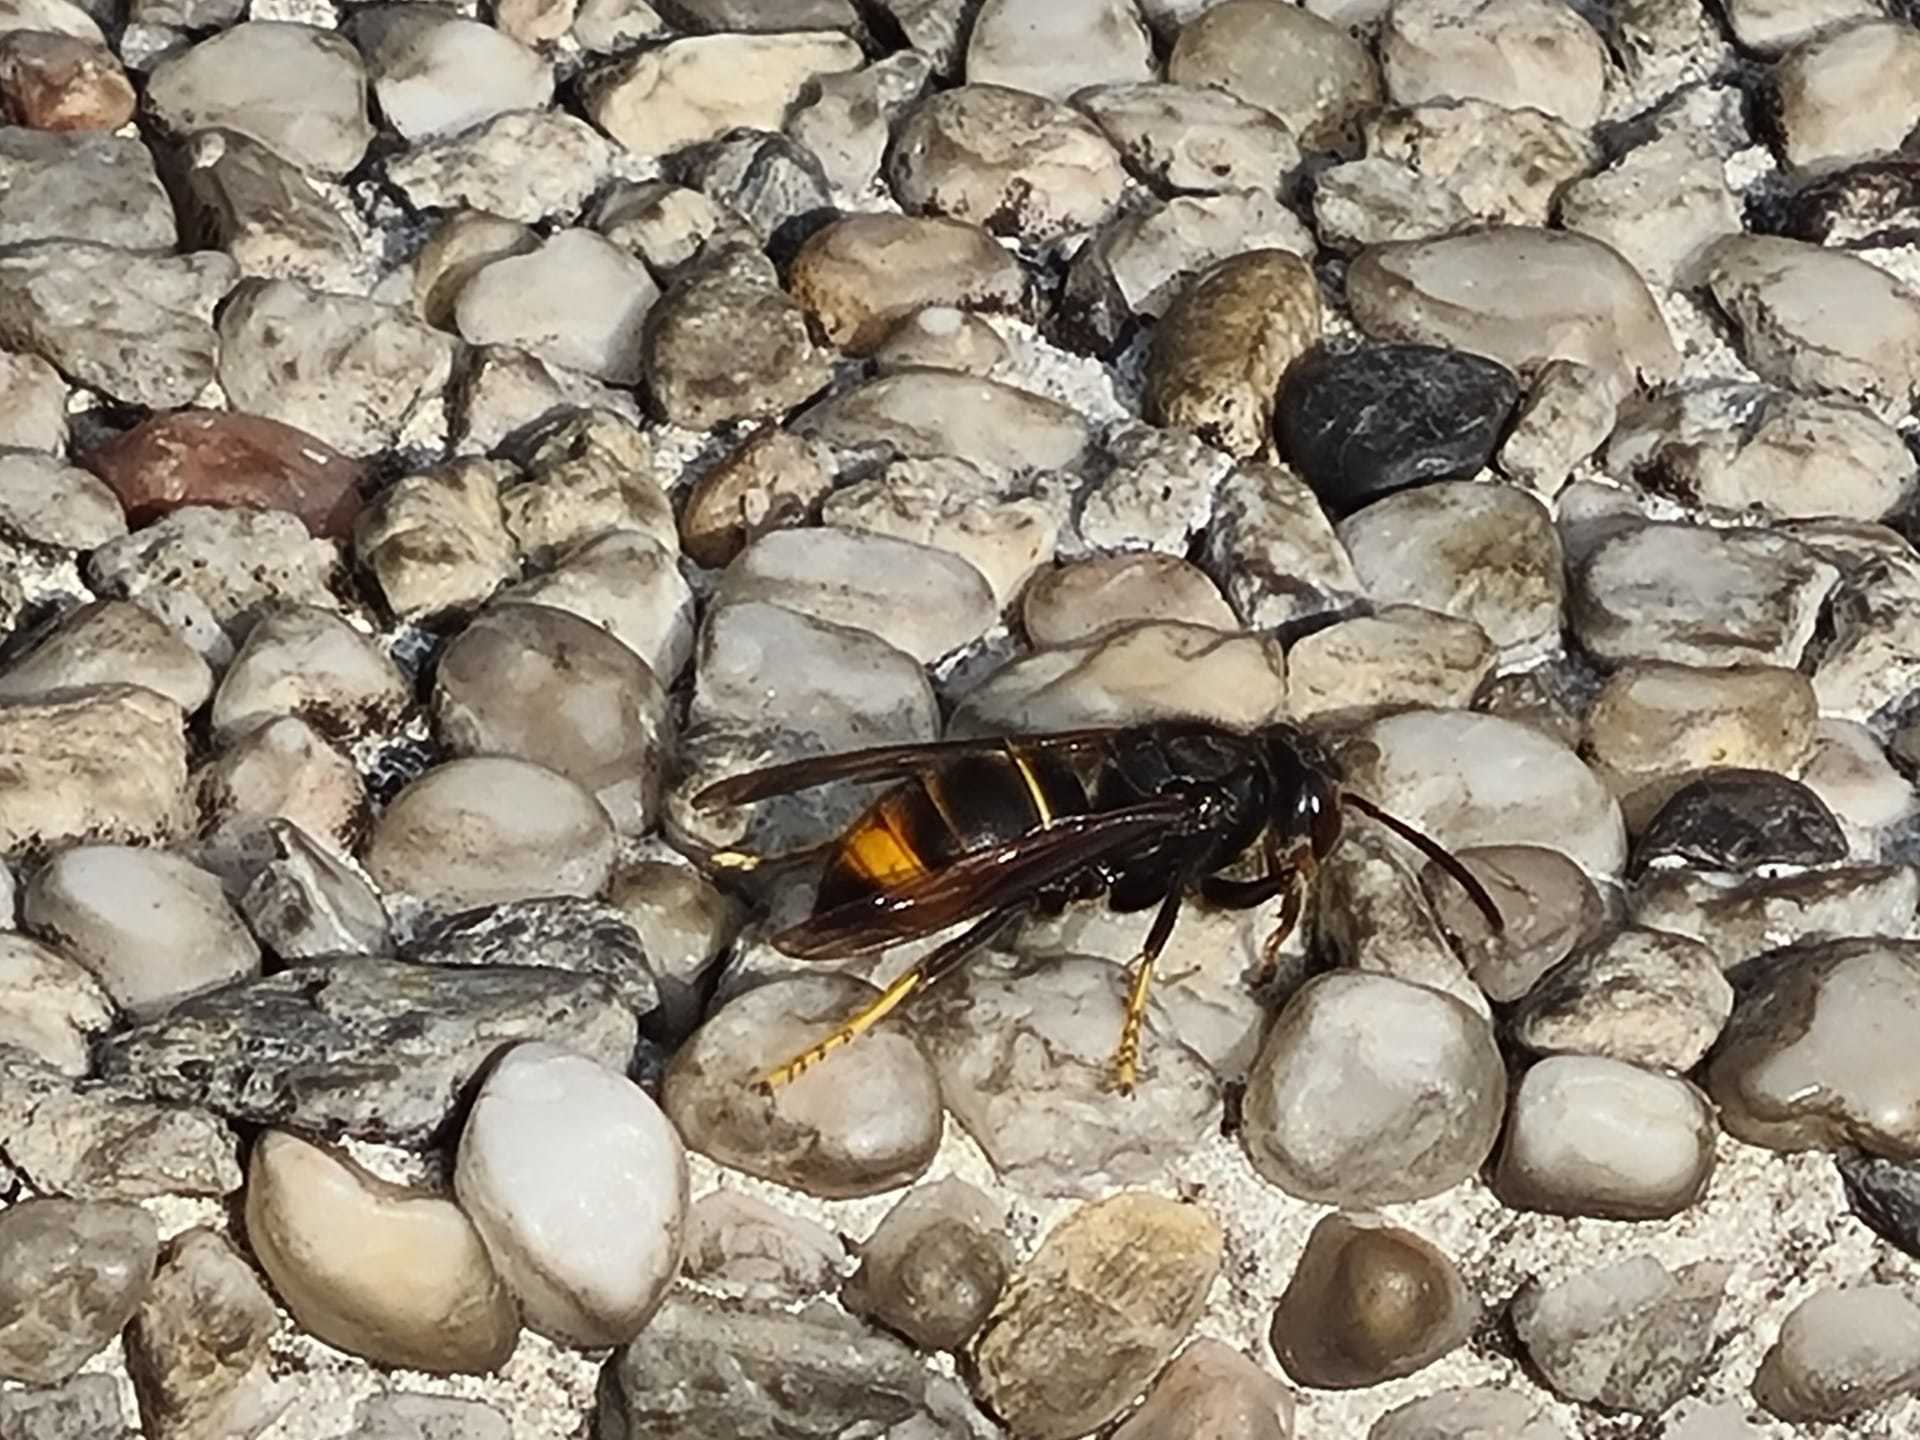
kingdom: Animalia
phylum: Arthropoda
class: Insecta
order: Hymenoptera
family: Vespidae
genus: Vespa
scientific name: Vespa velutina
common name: Asian hornet
